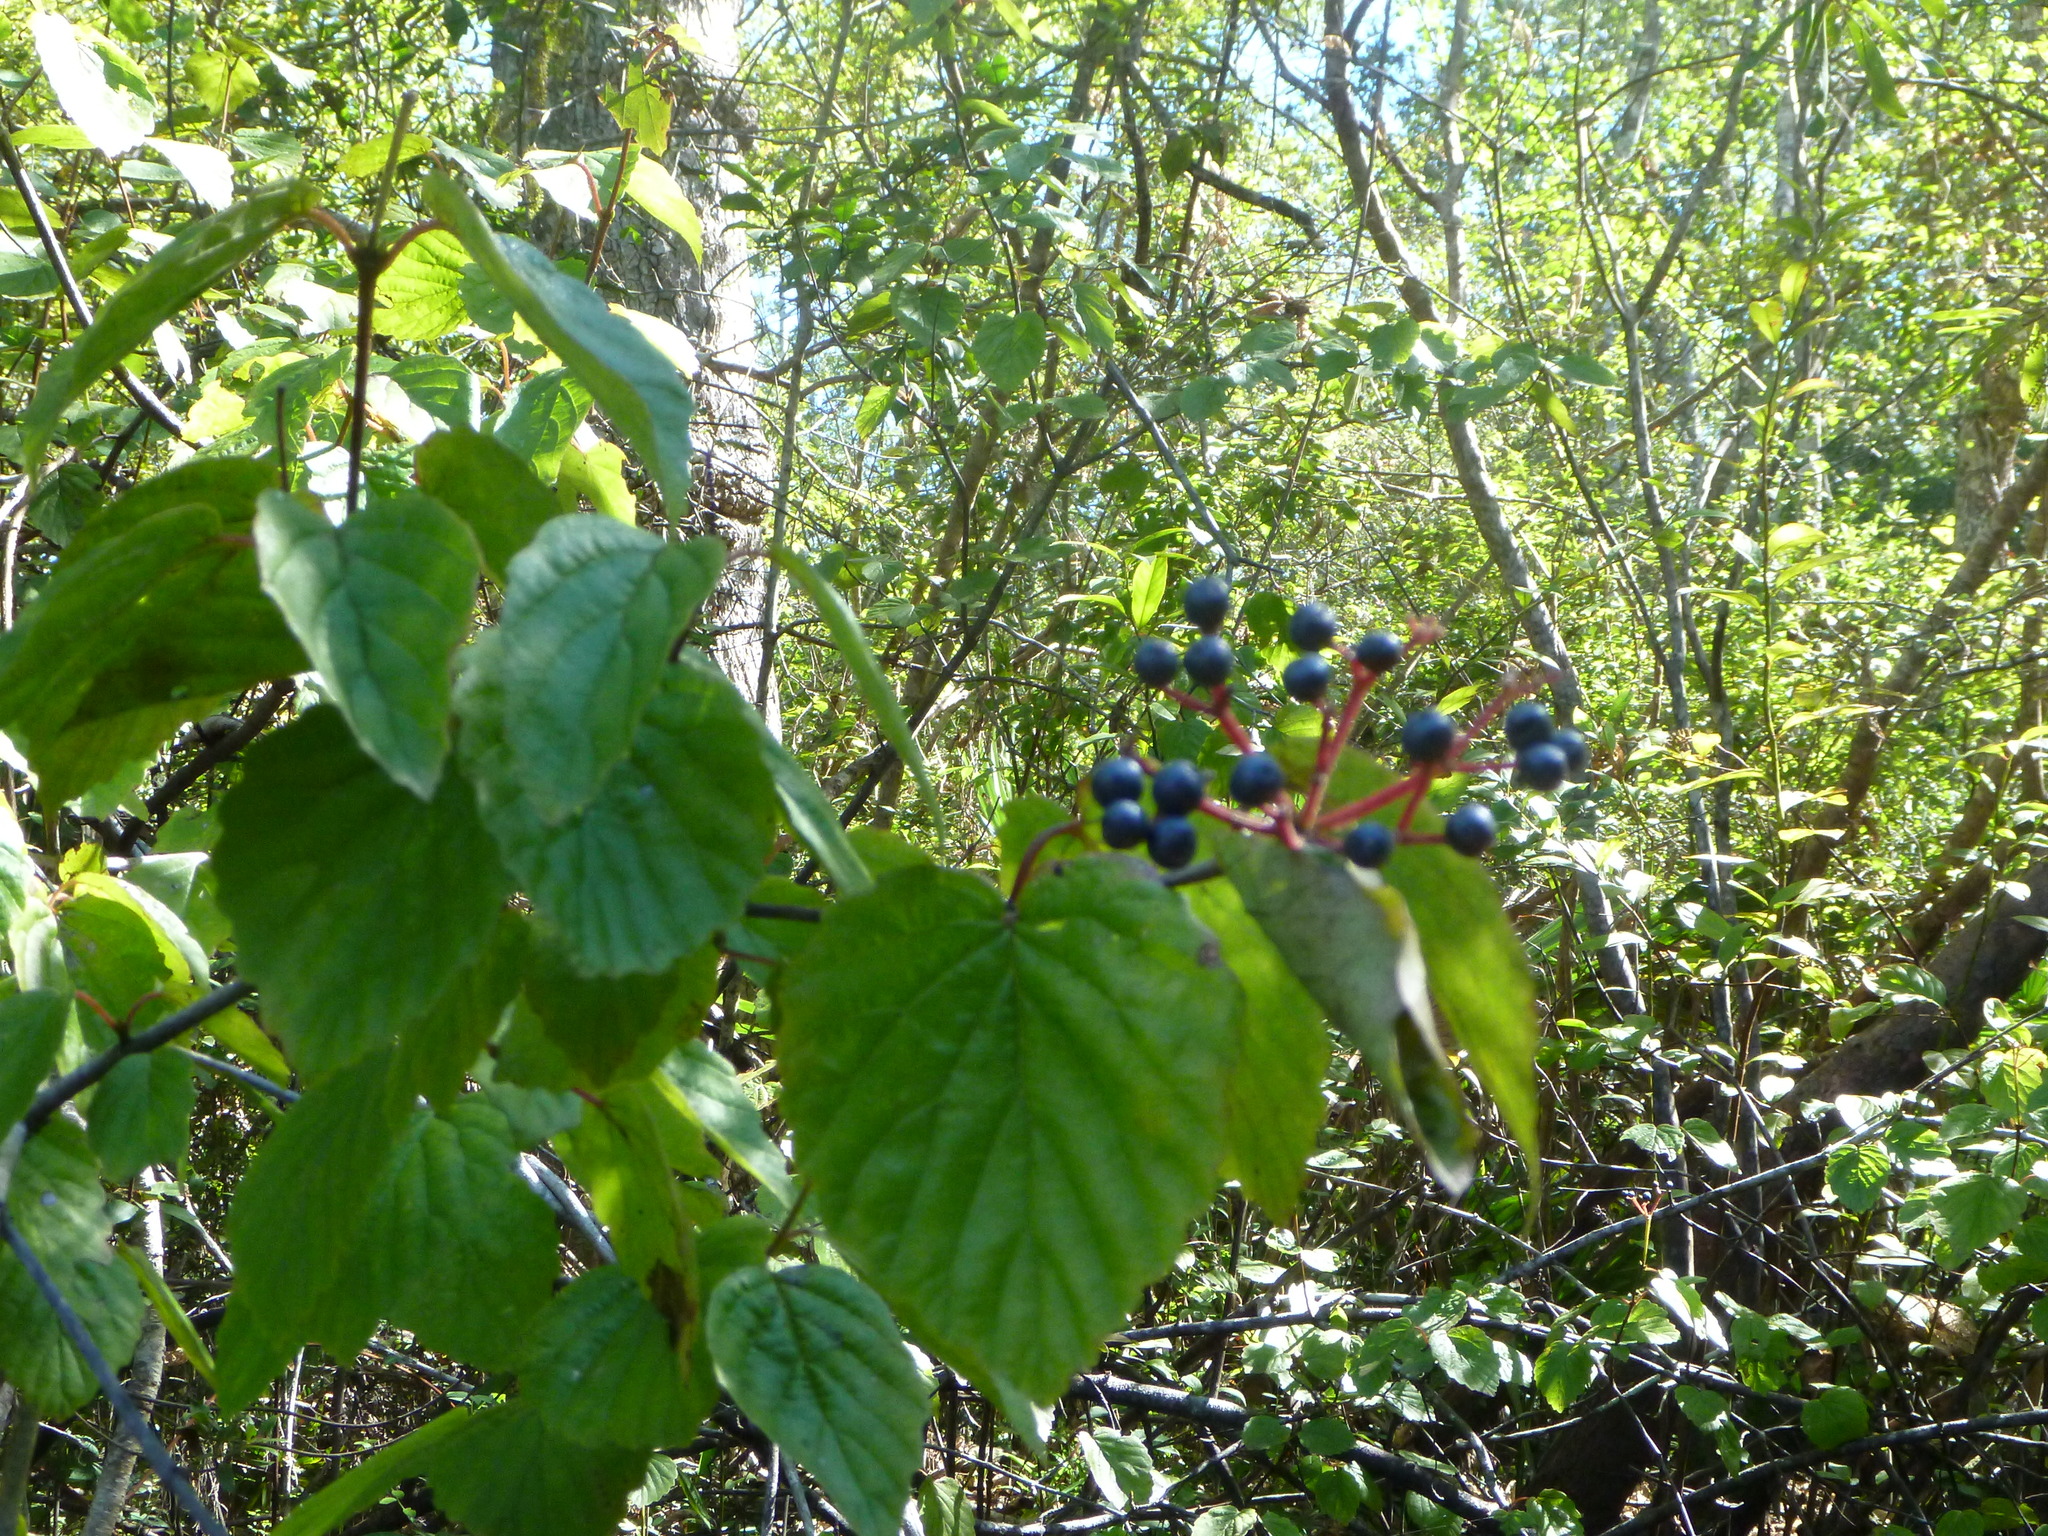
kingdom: Plantae
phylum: Tracheophyta
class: Magnoliopsida
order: Dipsacales
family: Viburnaceae
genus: Viburnum
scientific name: Viburnum scabrellum
